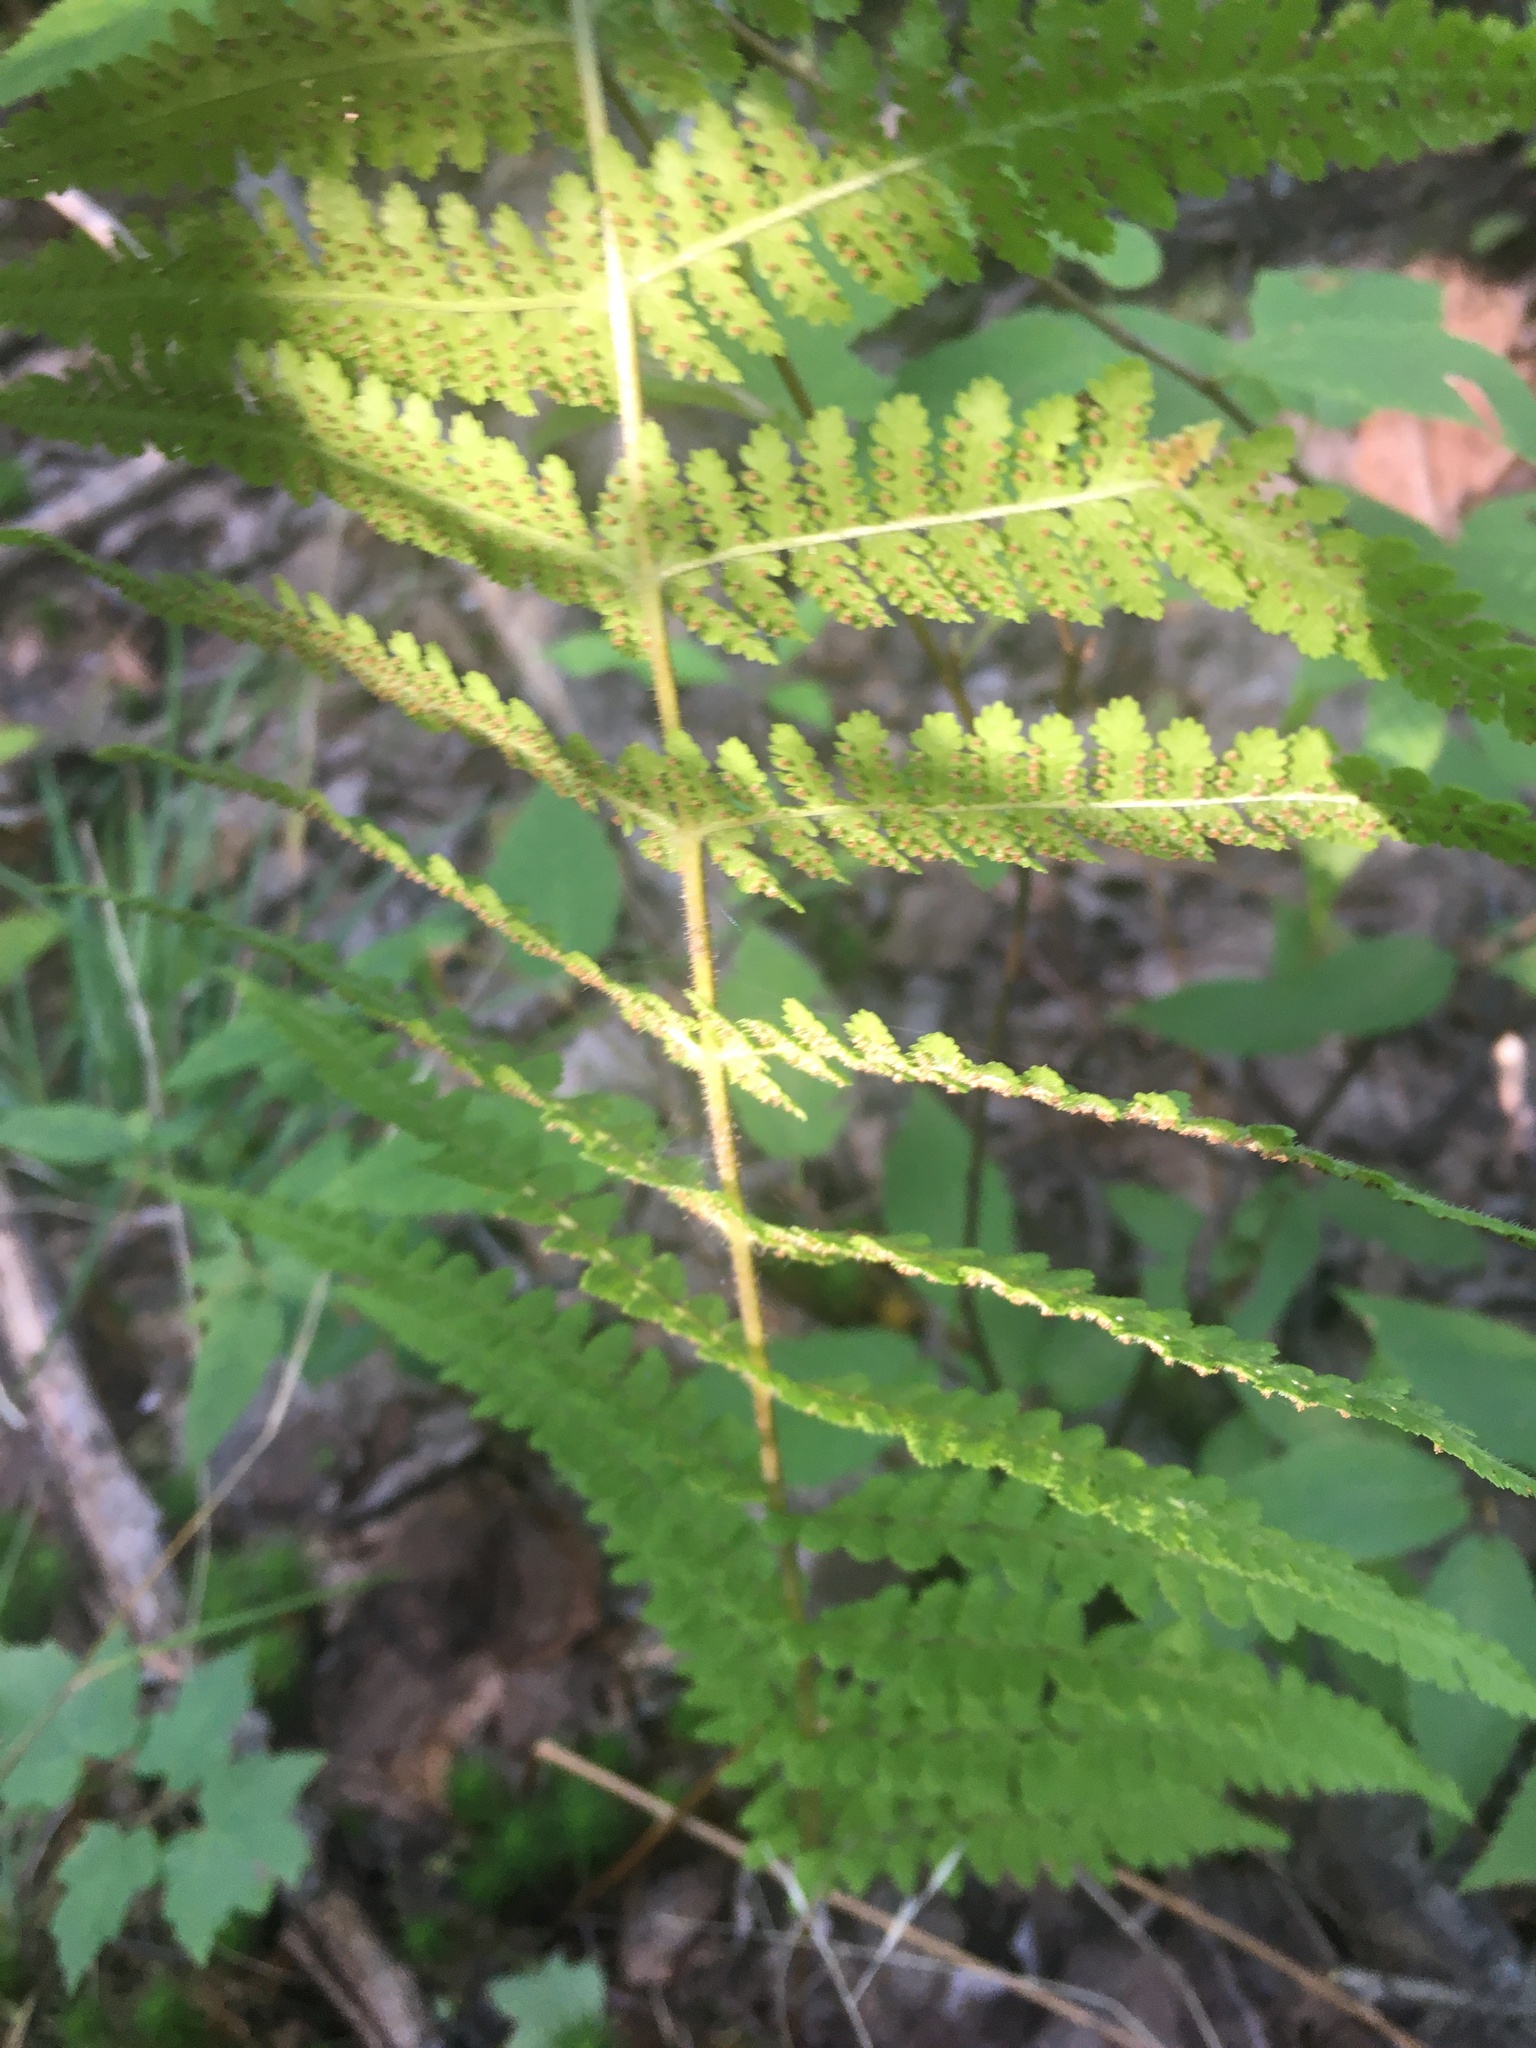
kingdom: Plantae
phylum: Tracheophyta
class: Polypodiopsida
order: Polypodiales
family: Dennstaedtiaceae
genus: Sitobolium
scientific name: Sitobolium punctilobum
